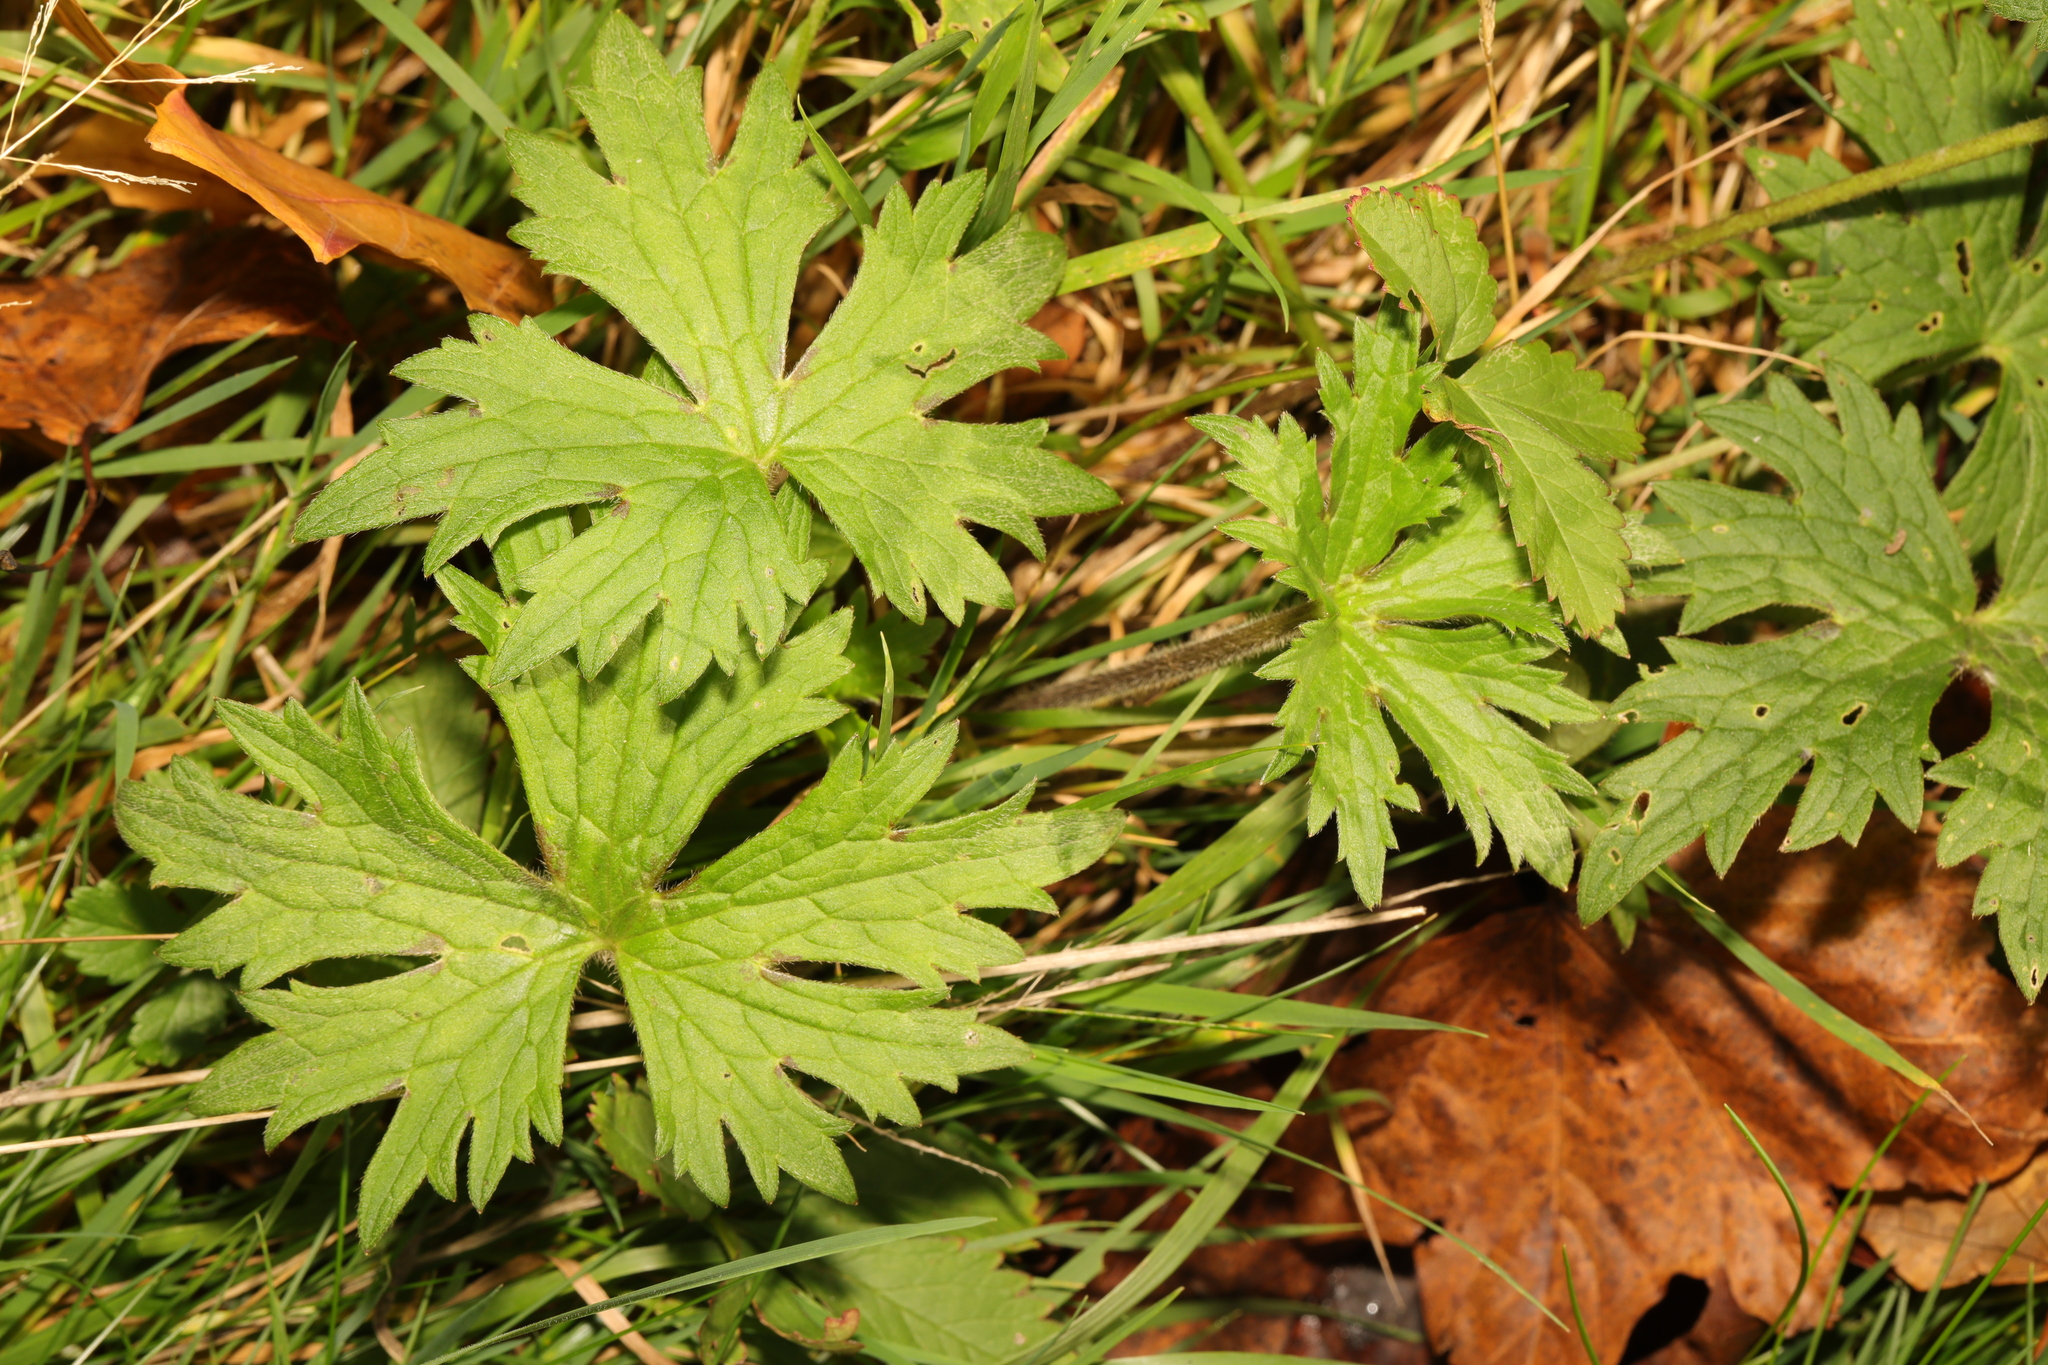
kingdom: Plantae
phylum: Tracheophyta
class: Magnoliopsida
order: Ranunculales
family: Ranunculaceae
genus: Ranunculus
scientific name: Ranunculus acris
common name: Meadow buttercup
